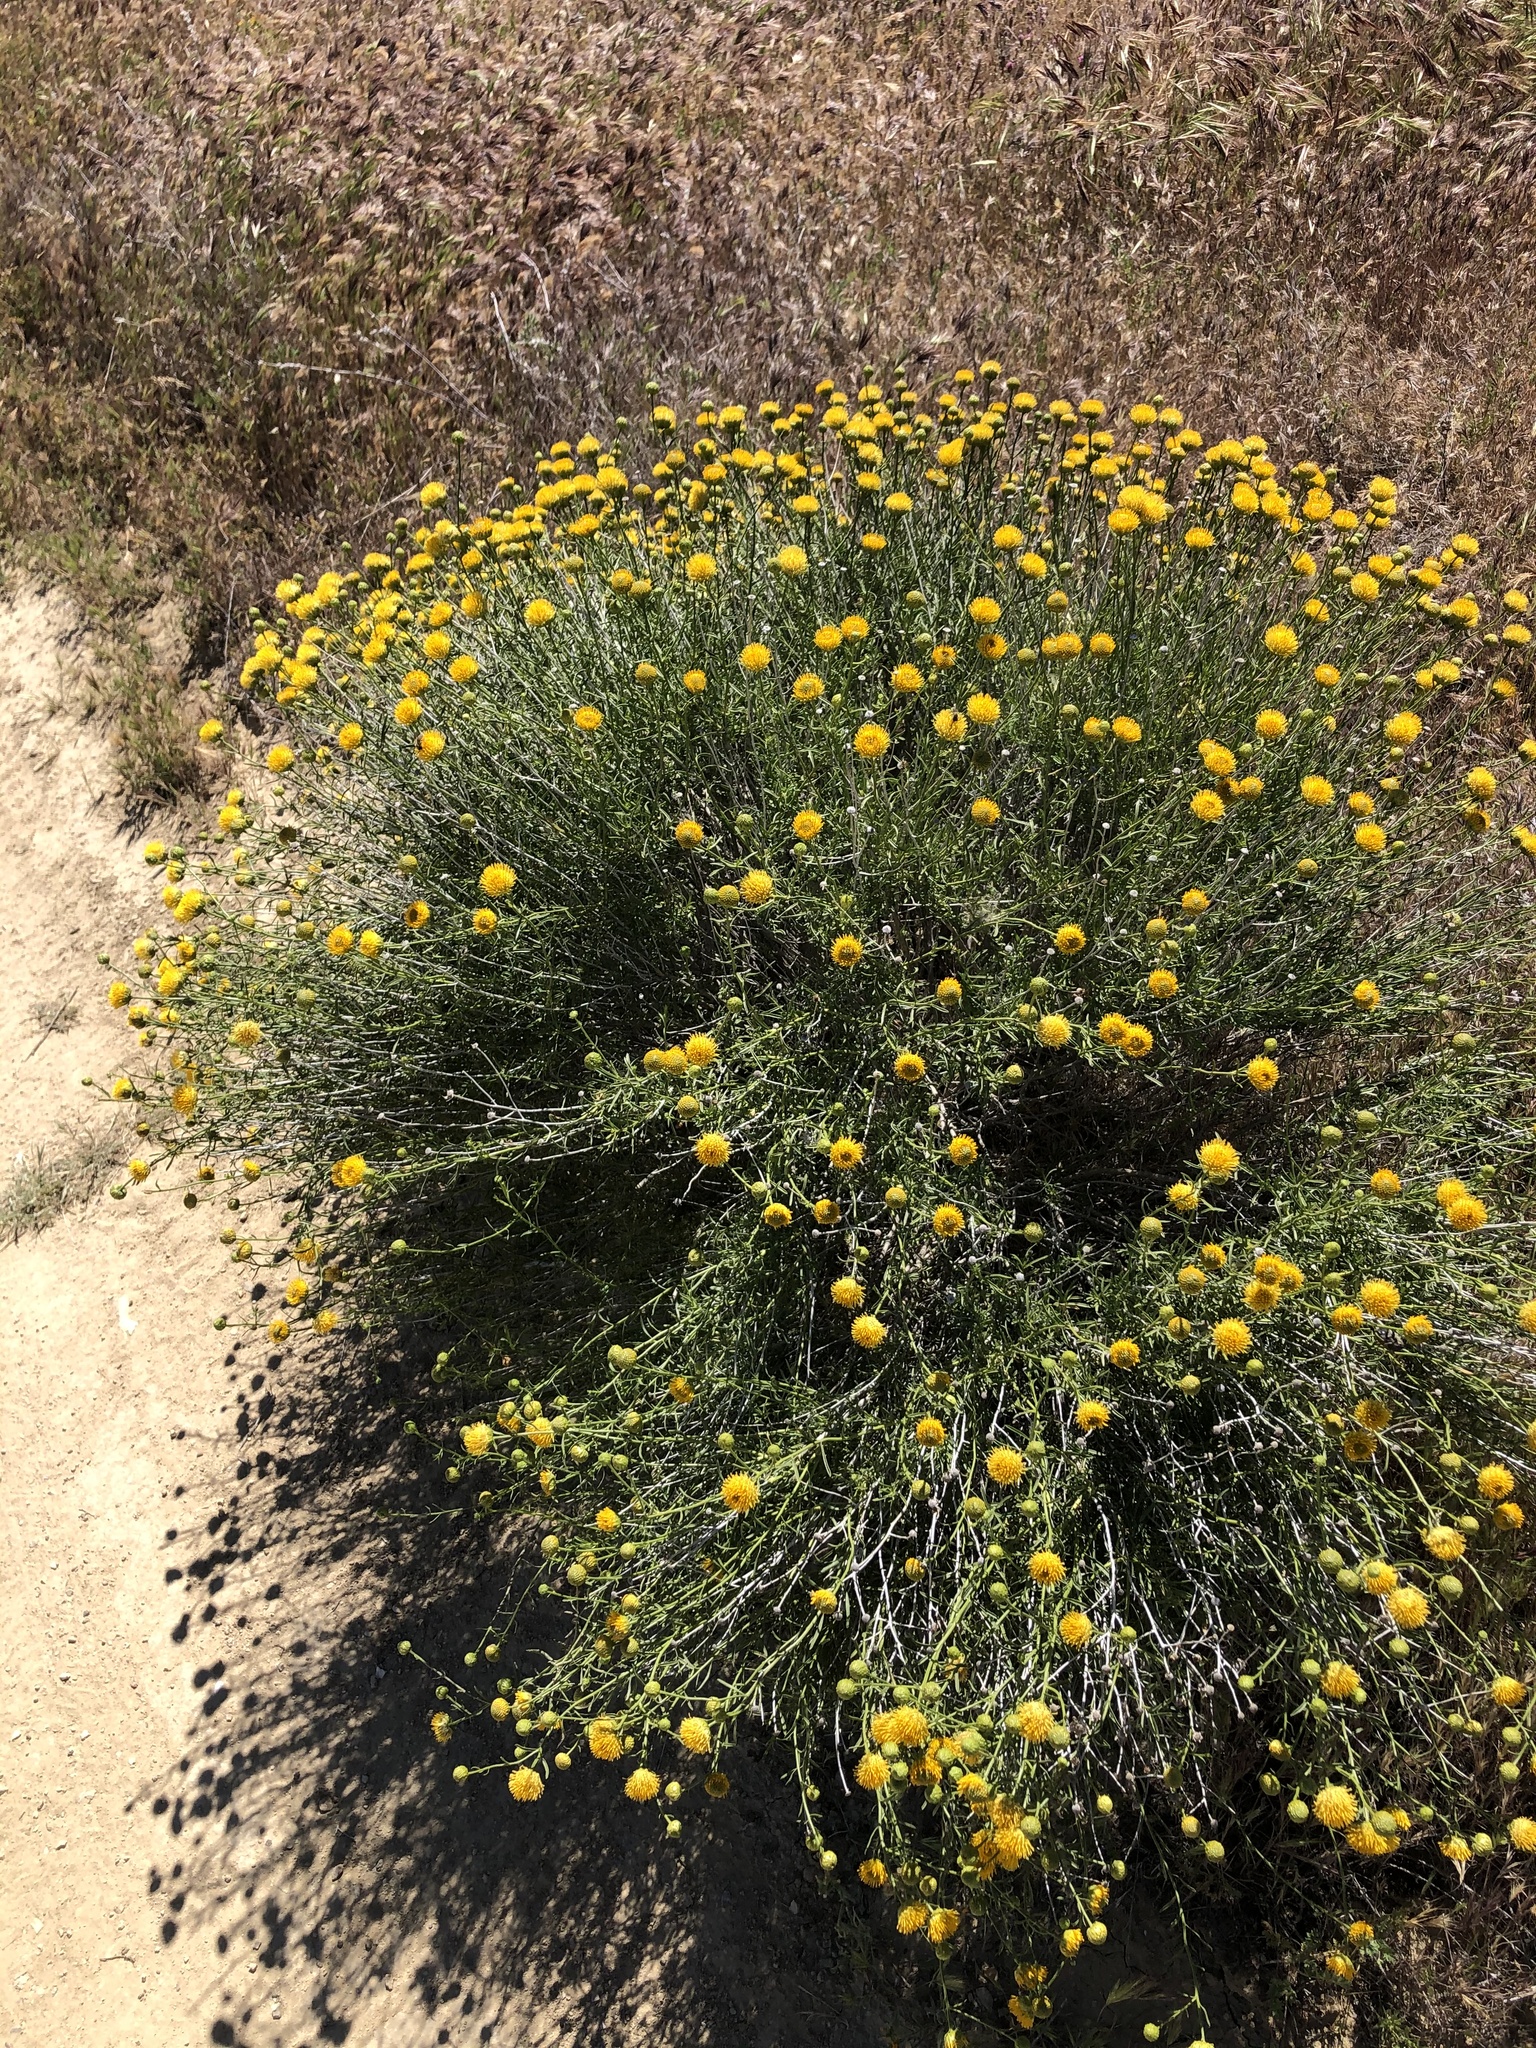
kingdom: Plantae
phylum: Tracheophyta
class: Magnoliopsida
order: Asterales
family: Asteraceae
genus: Eastwoodia
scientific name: Eastwoodia elegans
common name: Yellow-aster
